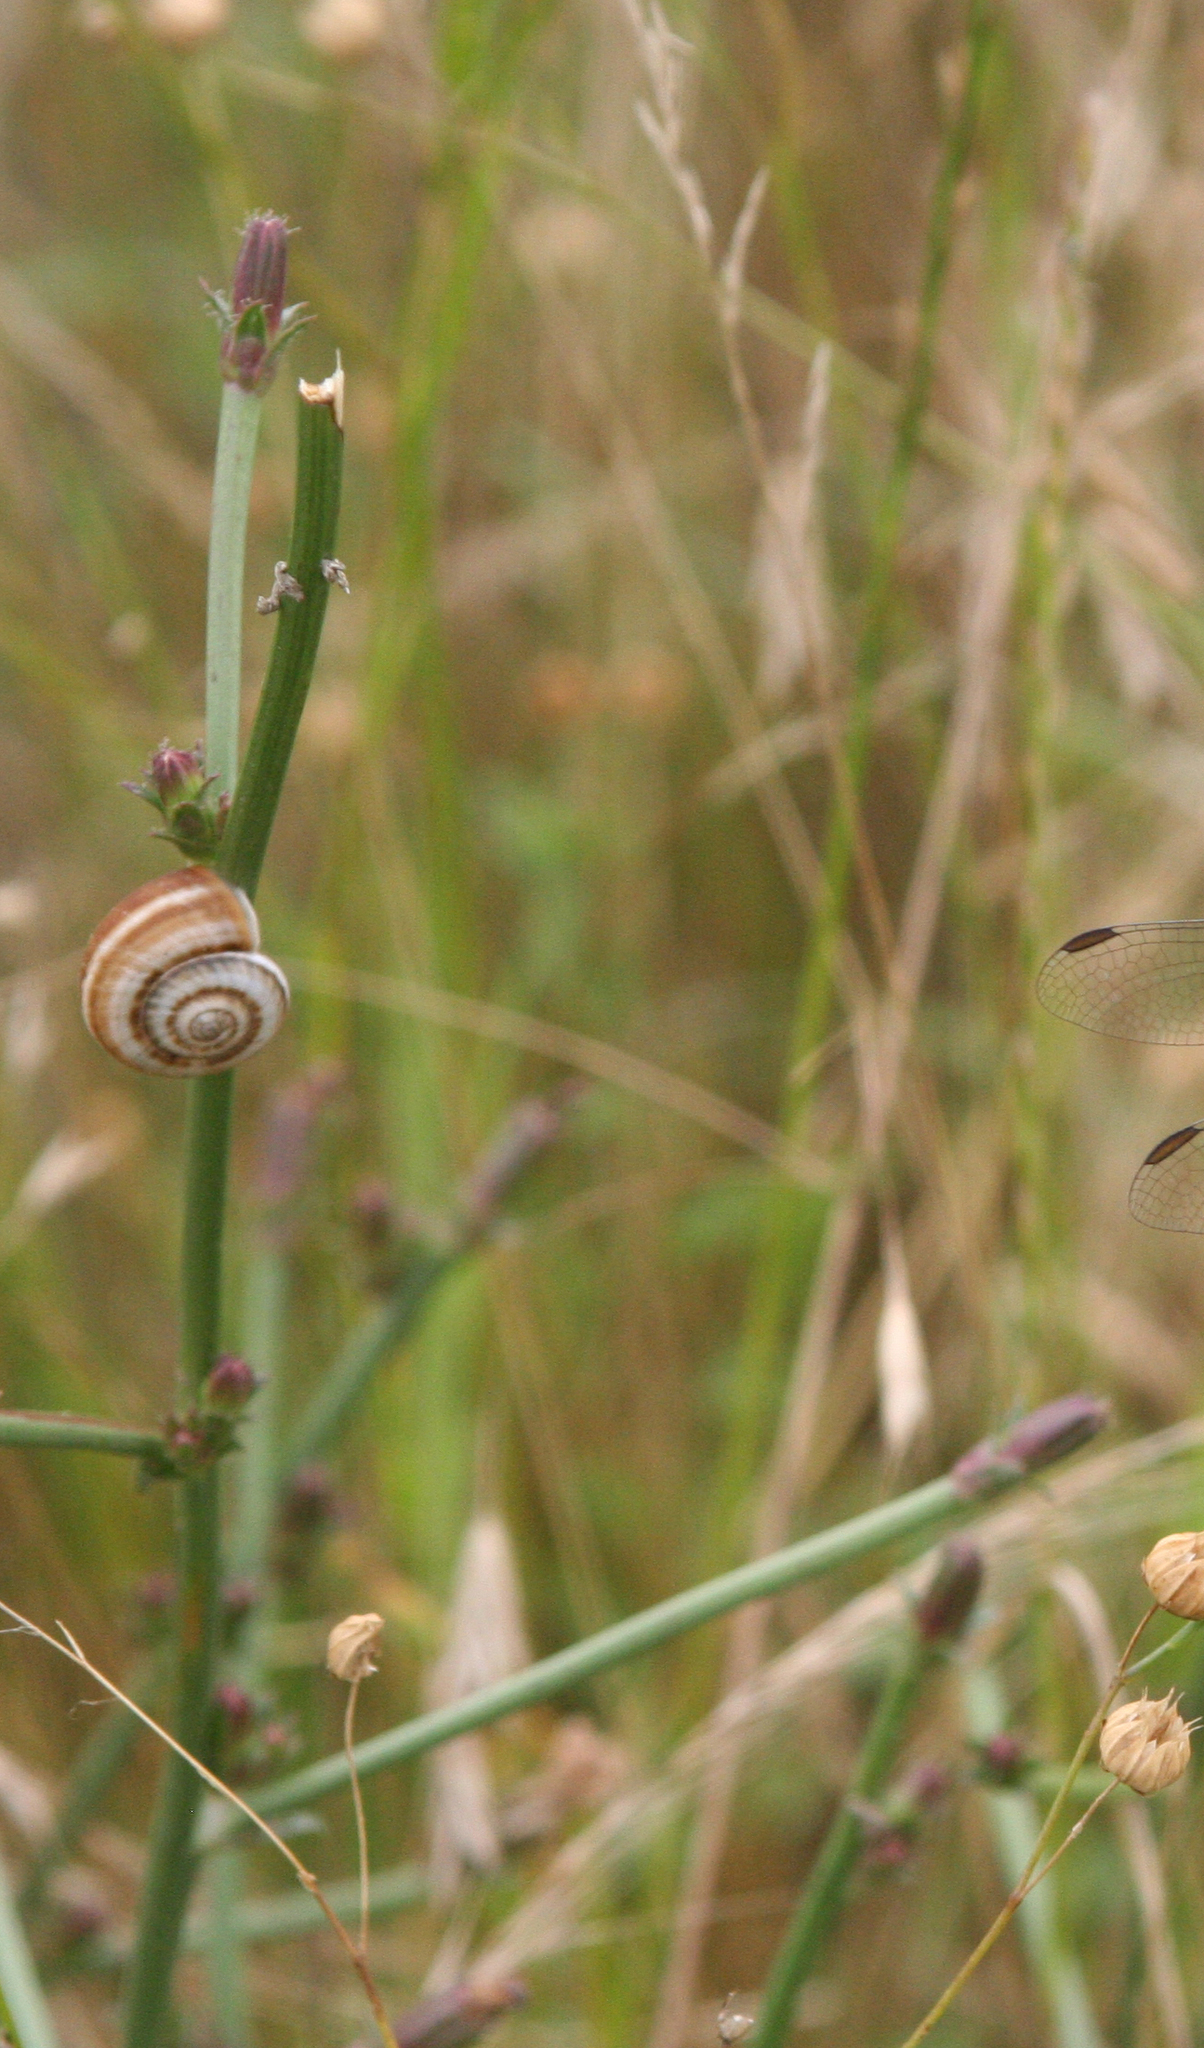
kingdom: Animalia
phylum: Mollusca
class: Gastropoda
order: Stylommatophora
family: Geomitridae
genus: Xeropicta
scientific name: Xeropicta derbentina
